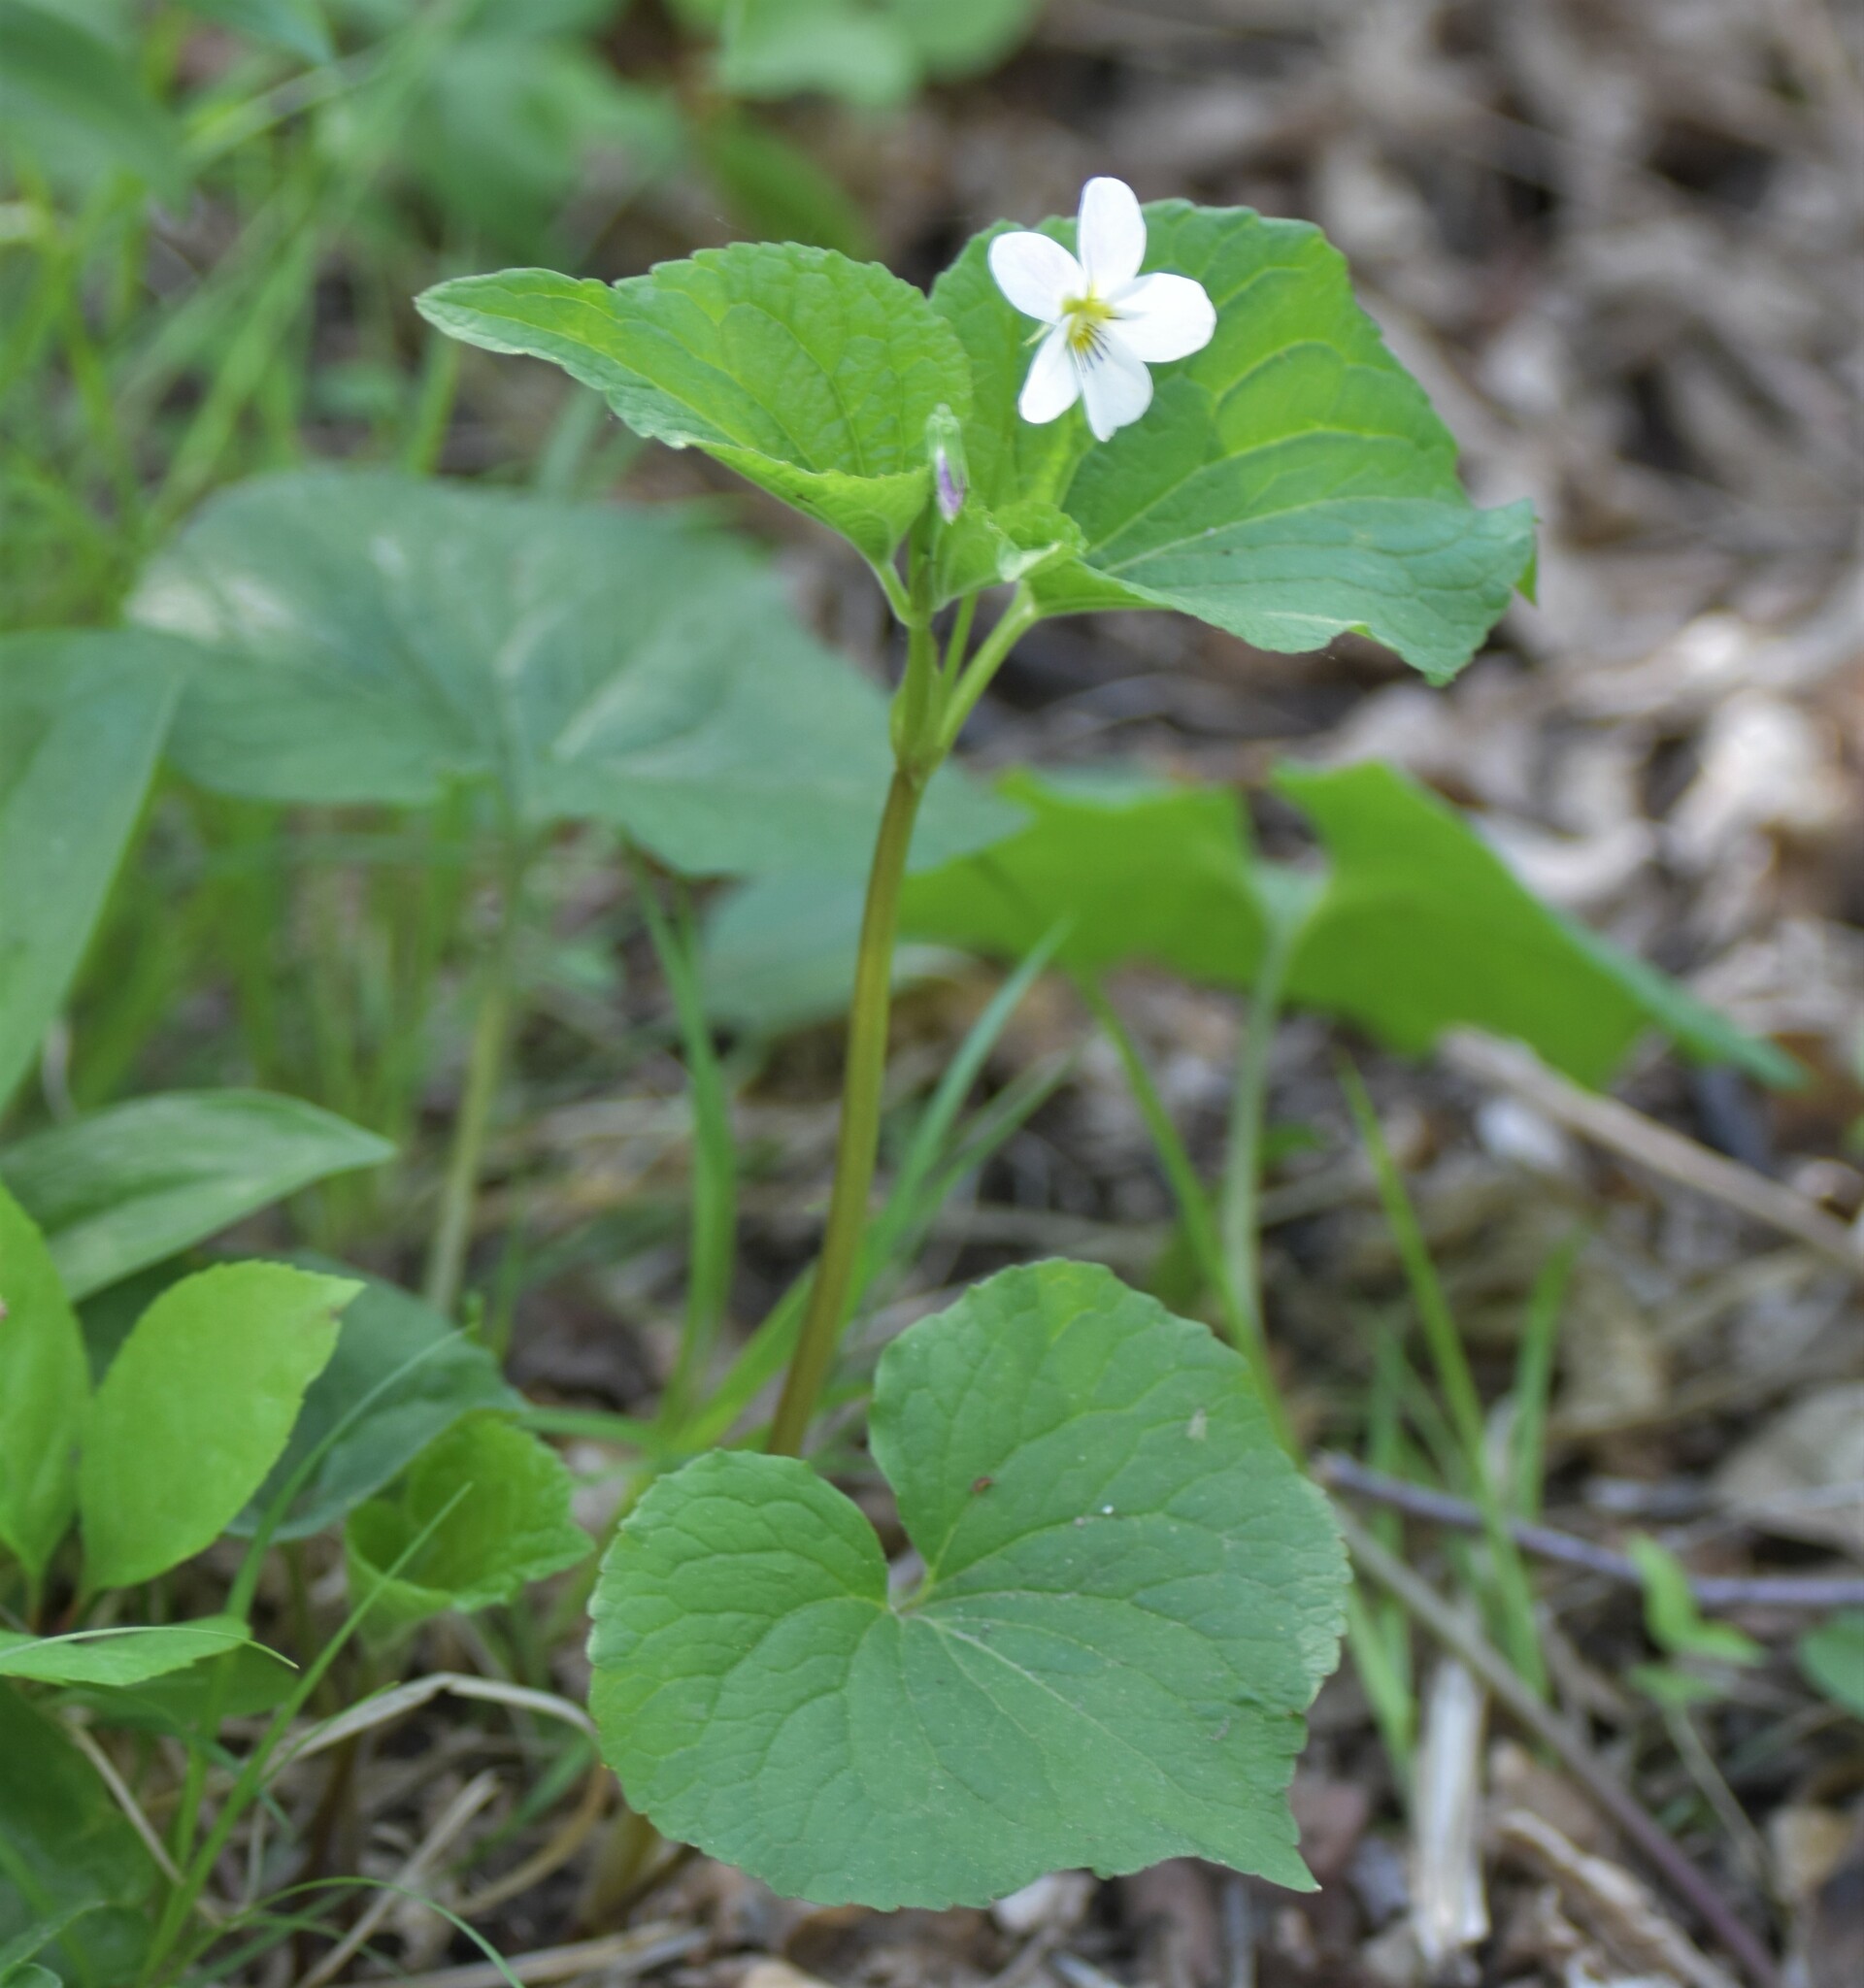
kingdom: Plantae
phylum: Tracheophyta
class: Magnoliopsida
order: Malpighiales
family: Violaceae
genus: Viola
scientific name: Viola canadensis
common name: Canada violet
